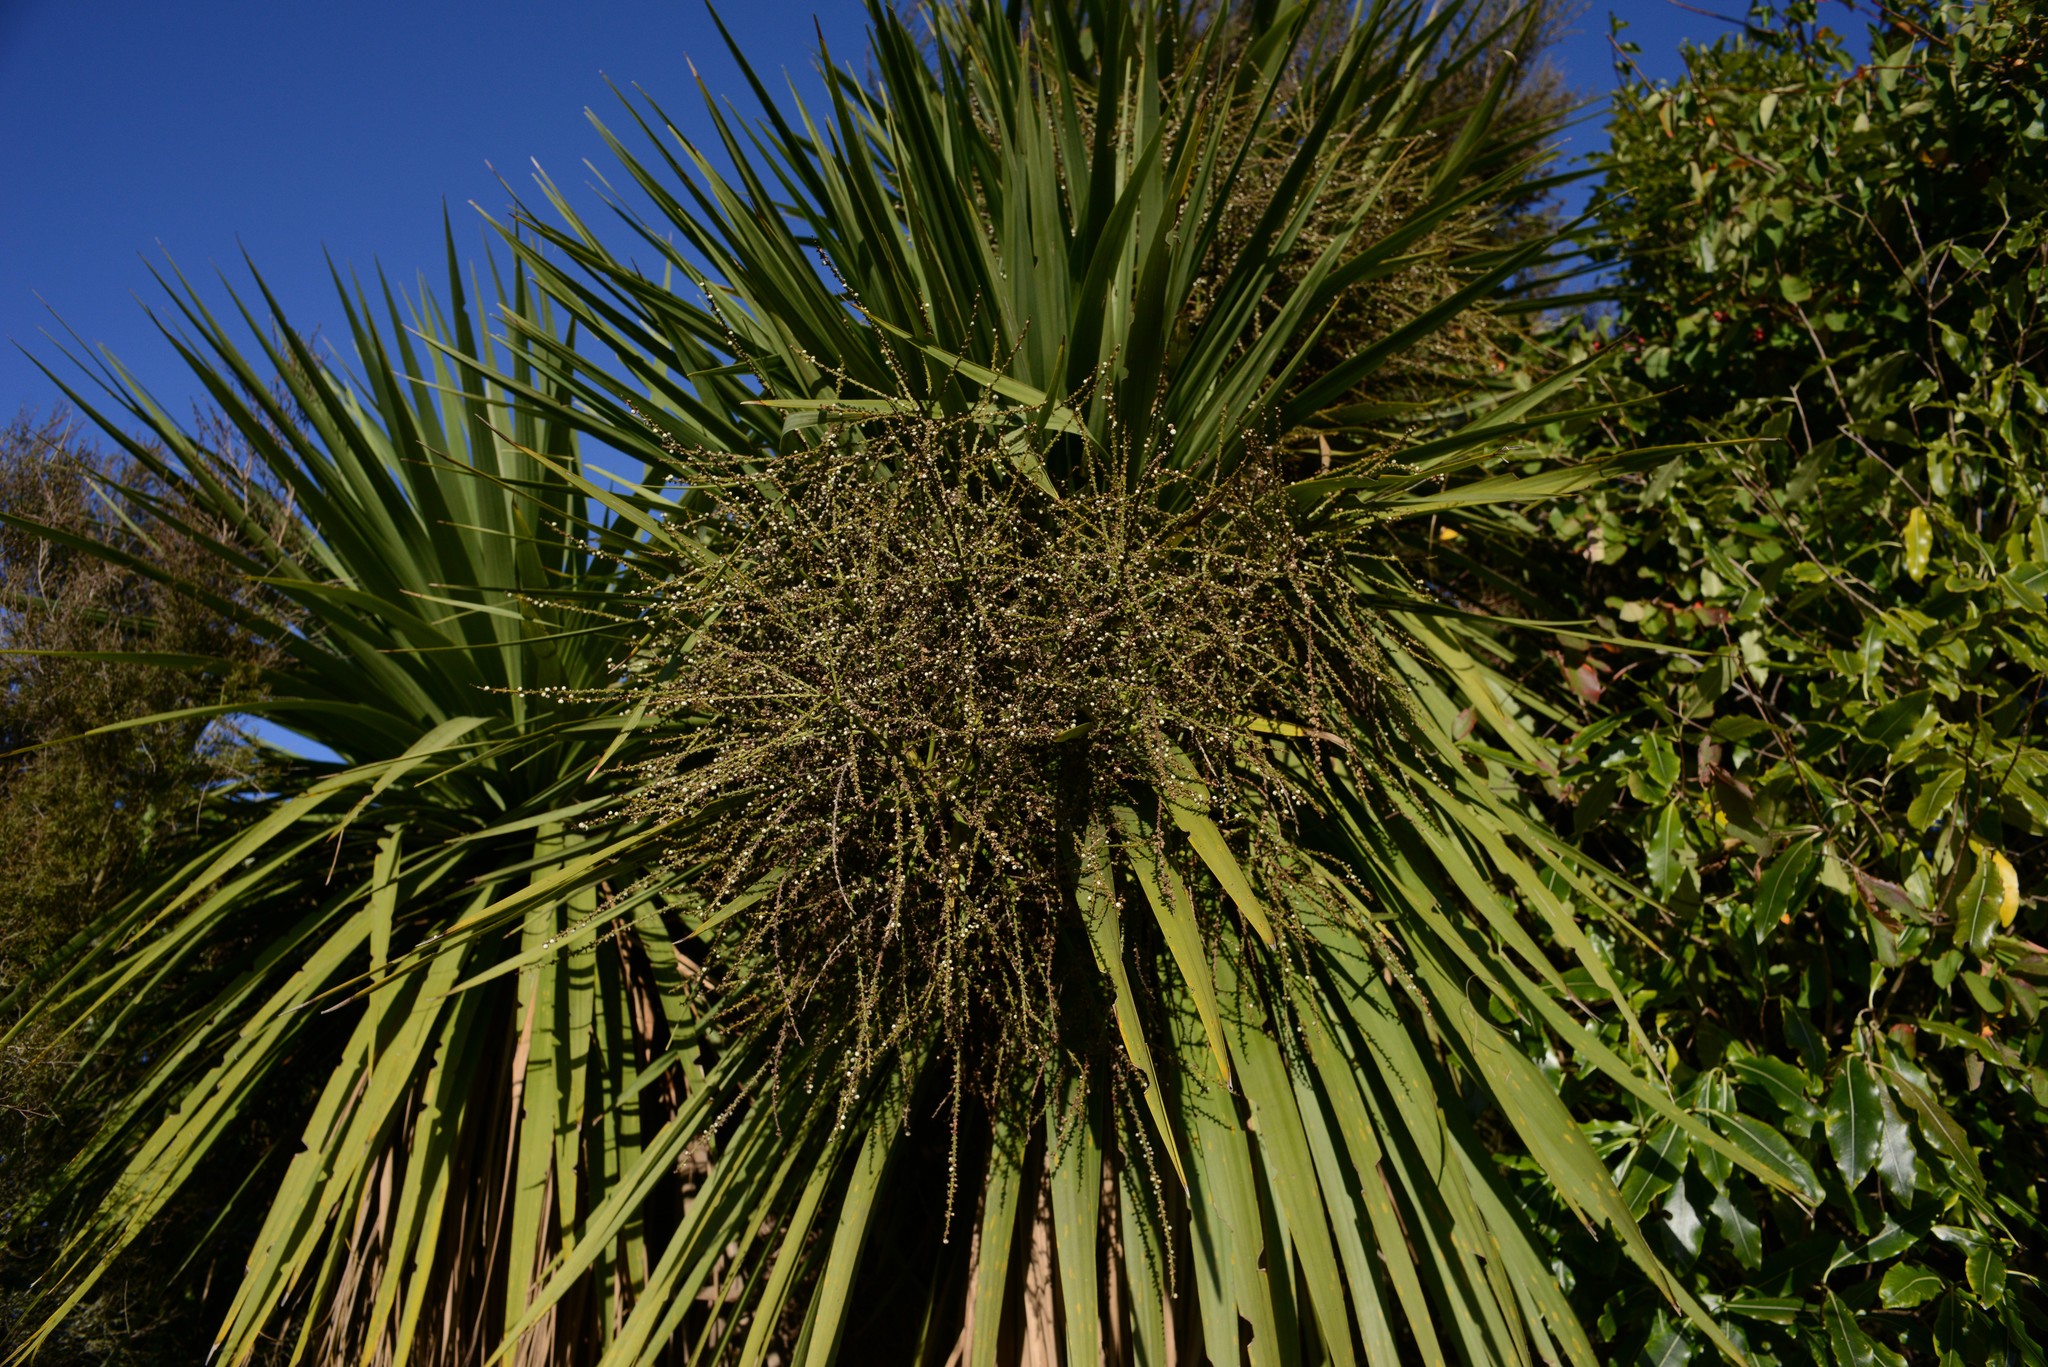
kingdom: Plantae
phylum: Tracheophyta
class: Liliopsida
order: Asparagales
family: Asparagaceae
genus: Cordyline
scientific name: Cordyline australis
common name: Cabbage-palm
